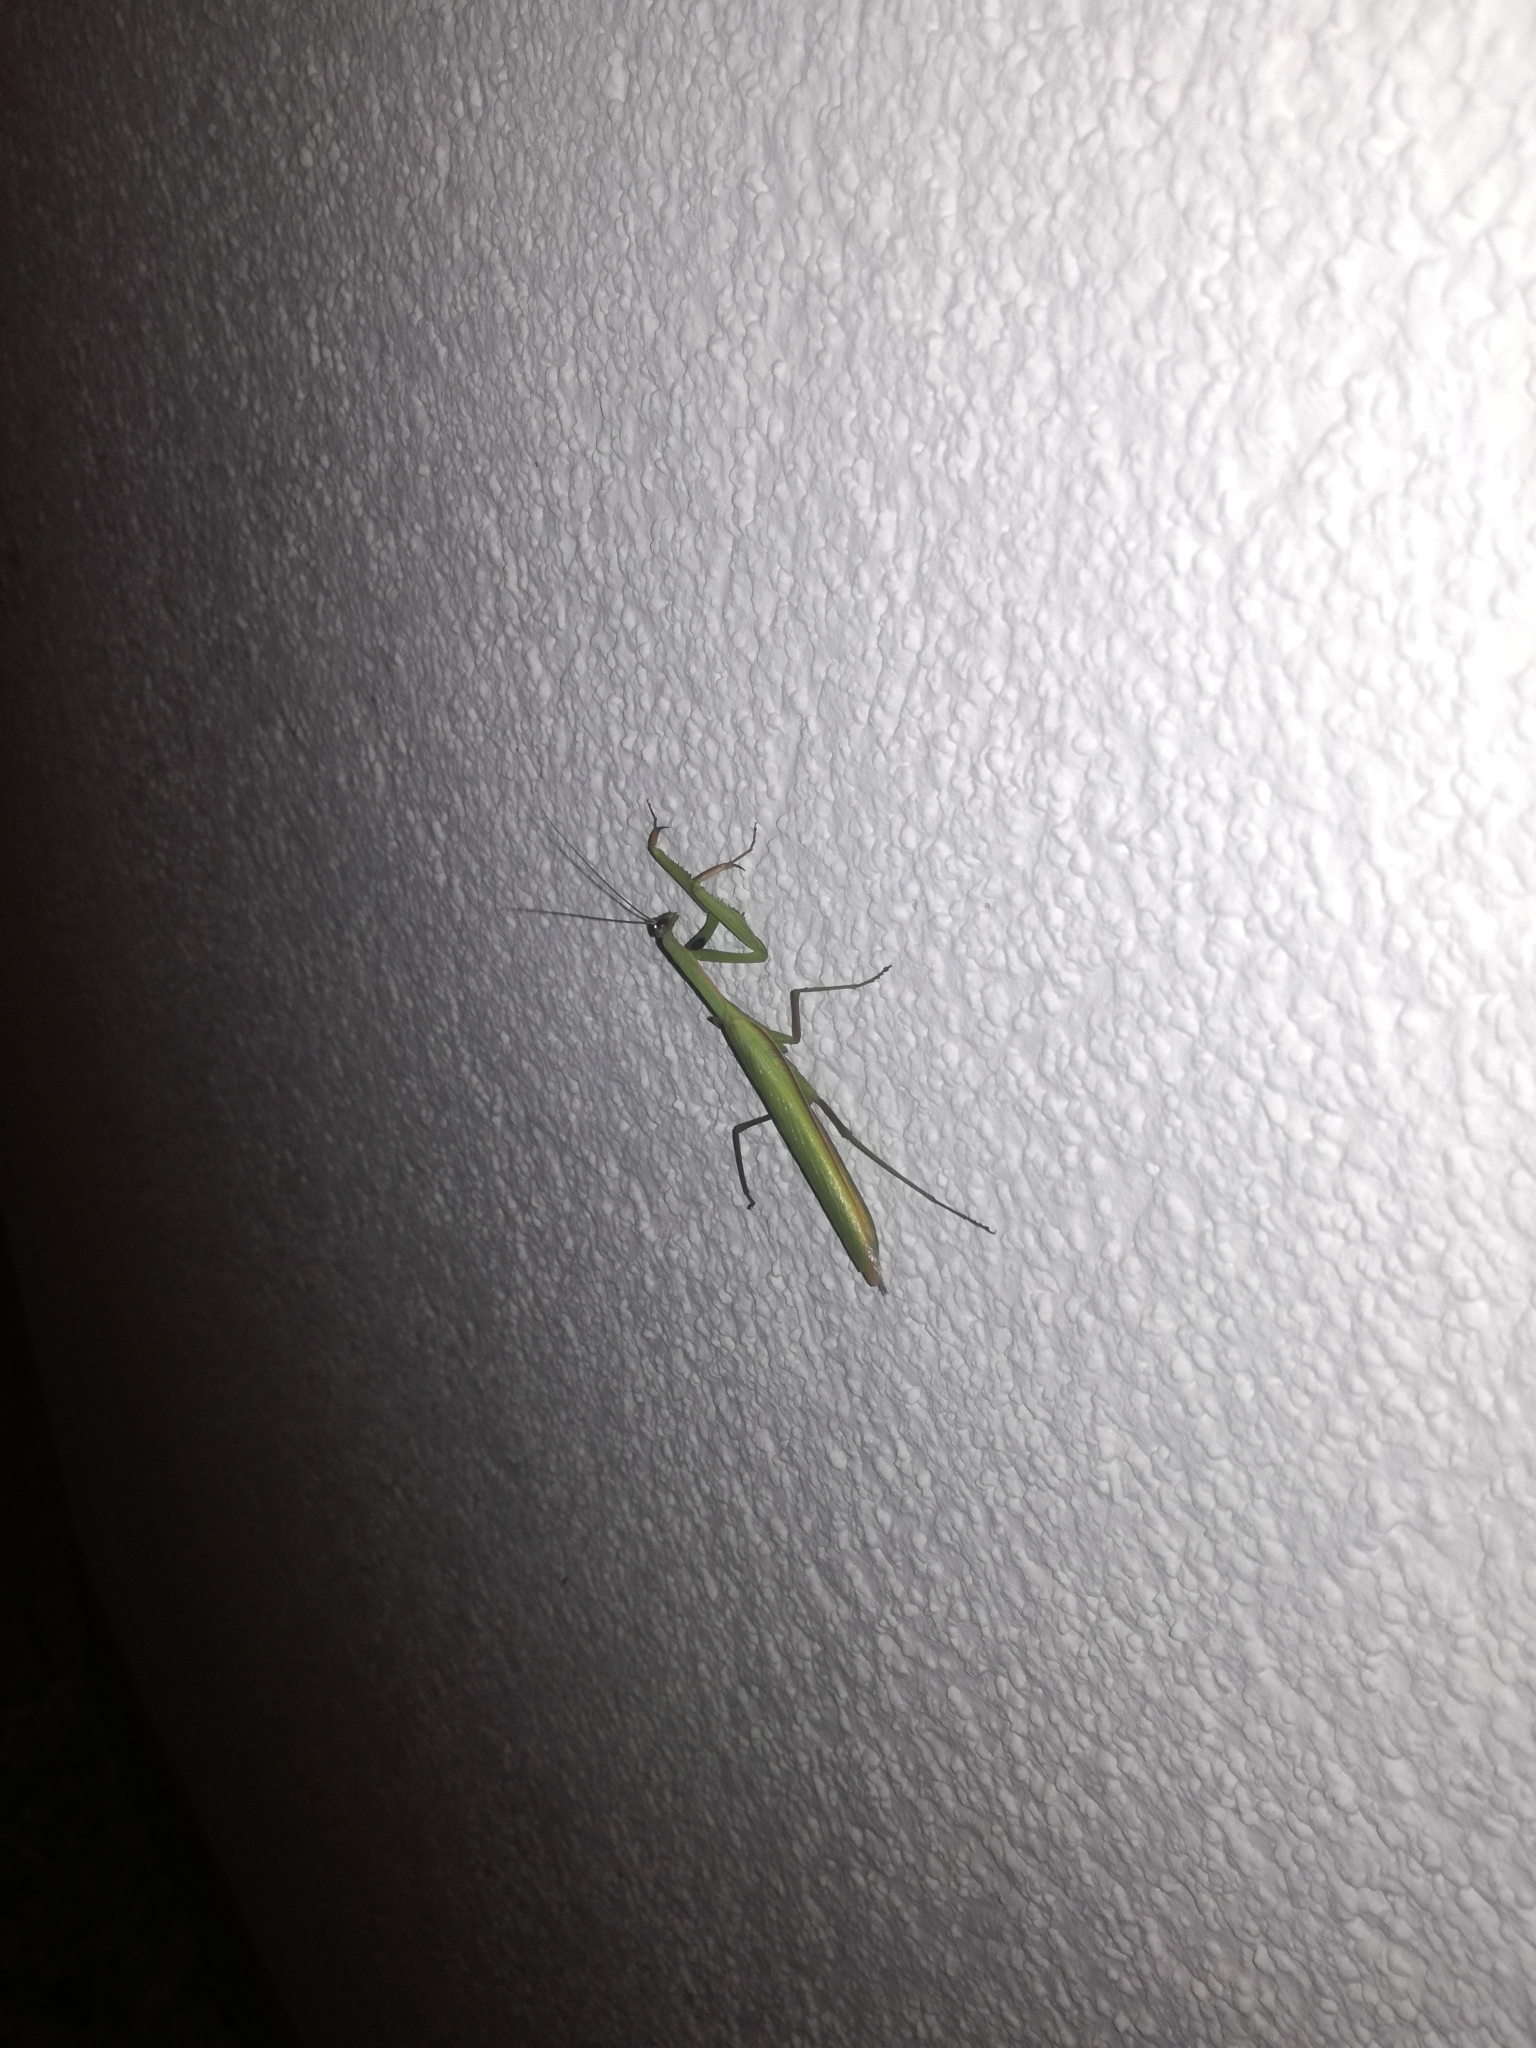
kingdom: Animalia
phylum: Arthropoda
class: Insecta
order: Mantodea
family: Mantidae
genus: Mantis
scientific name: Mantis religiosa
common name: Praying mantis
